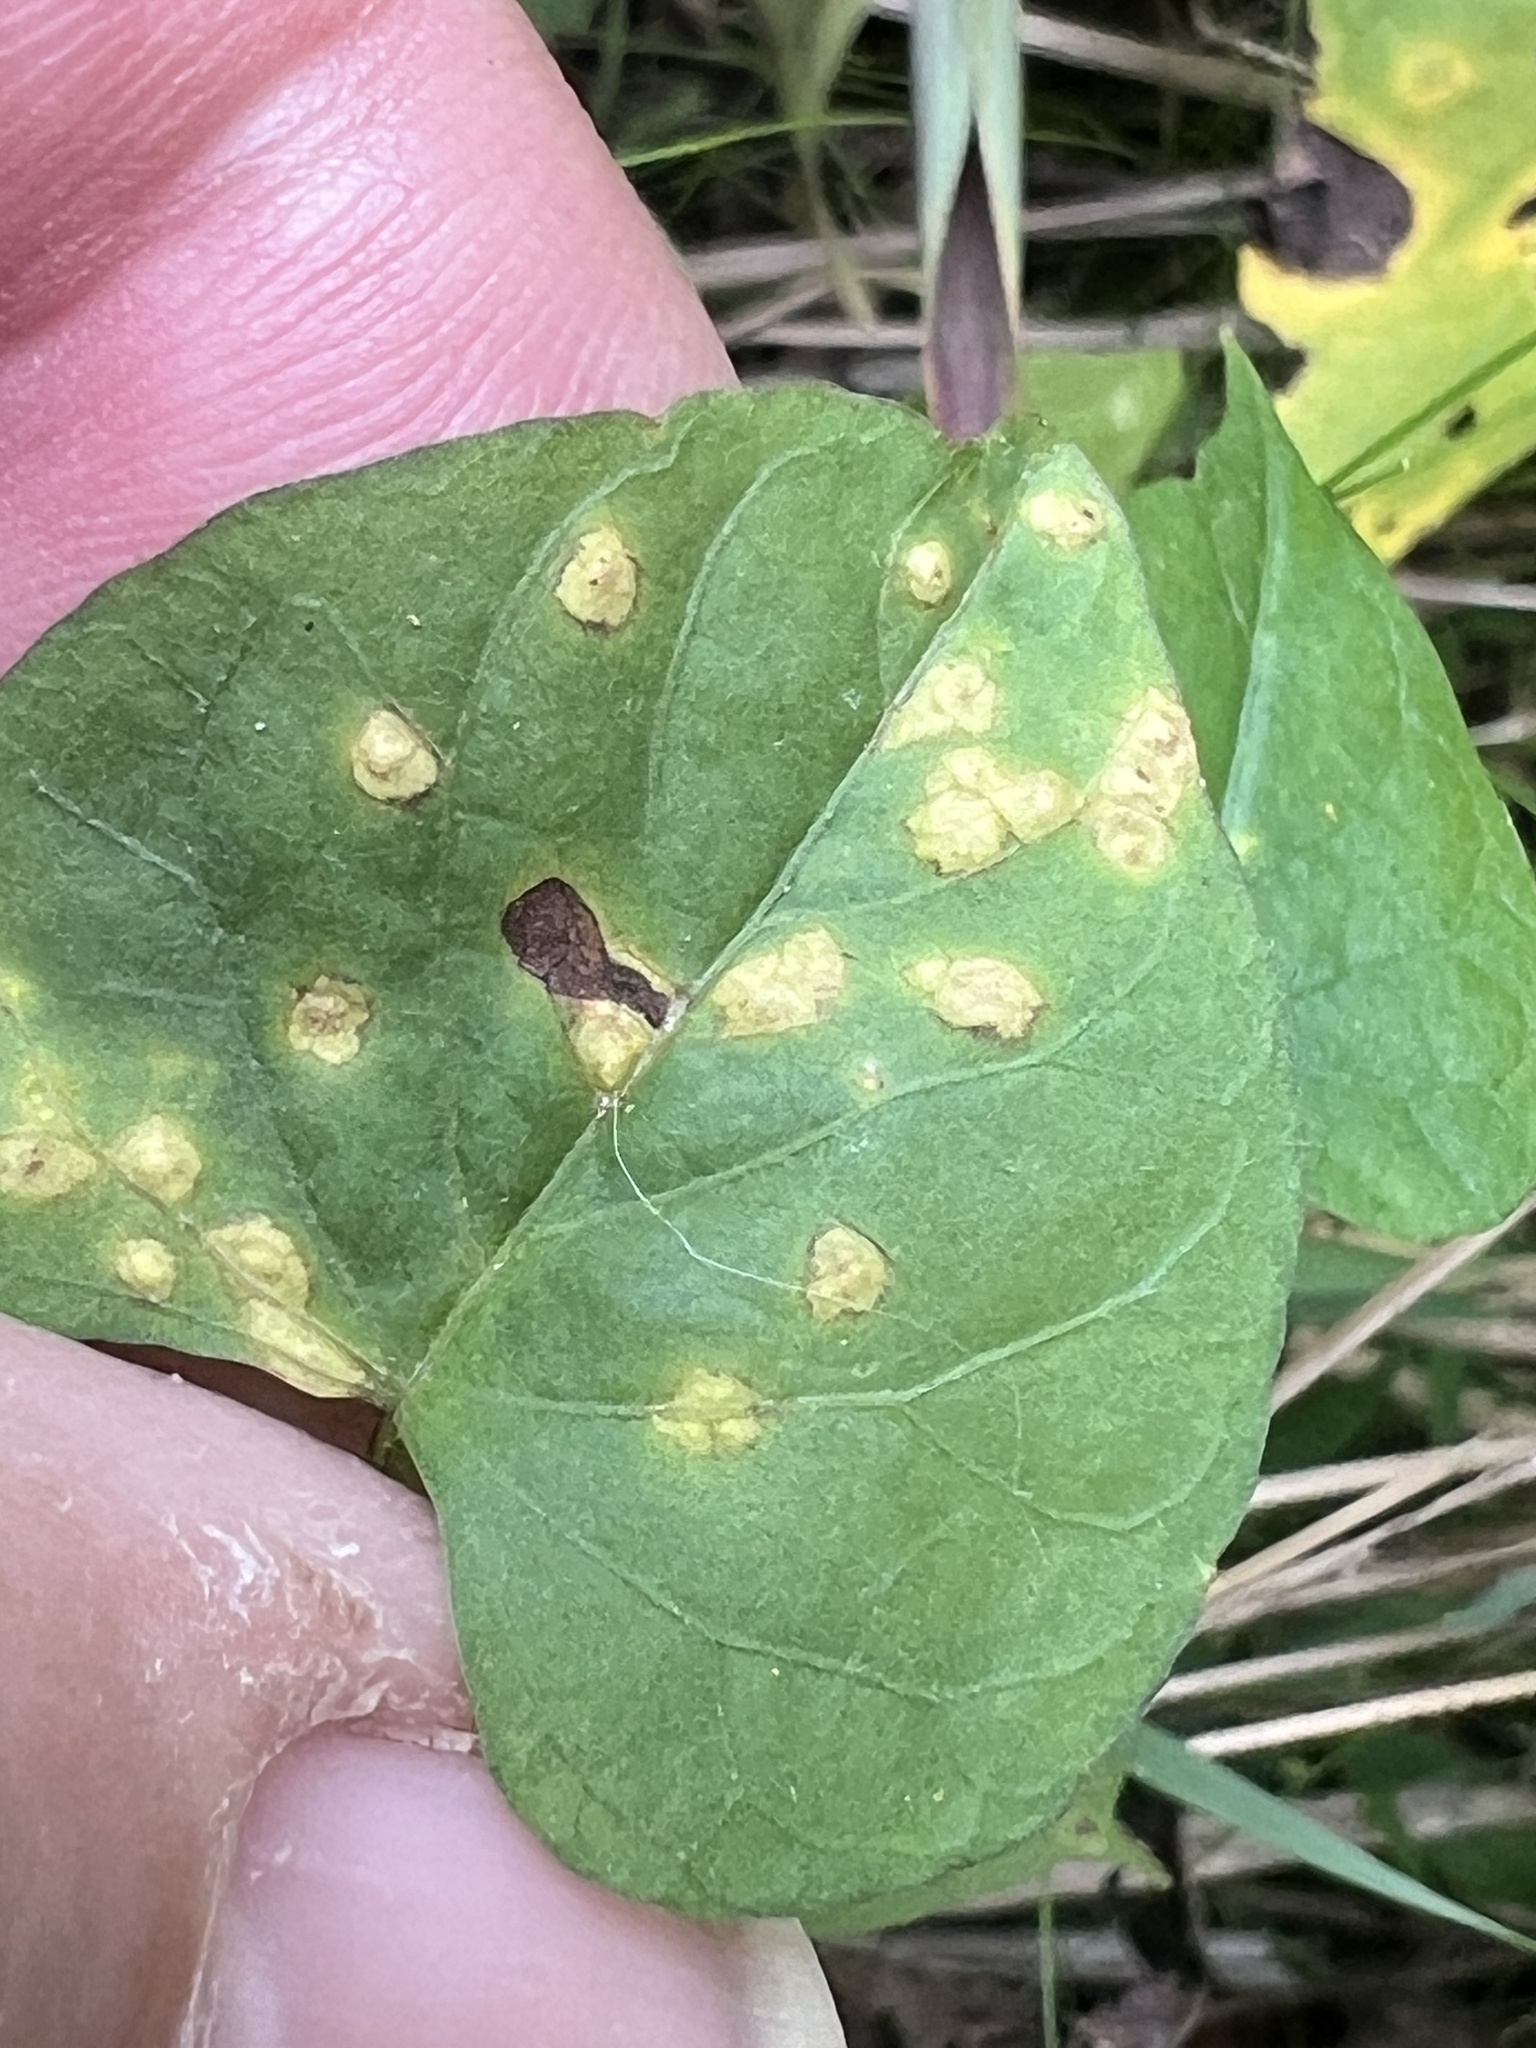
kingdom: Fungi
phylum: Basidiomycota
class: Pucciniomycetes
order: Pucciniales
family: Coleosporiaceae
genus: Coleosporium
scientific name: Coleosporium ipomoeae
